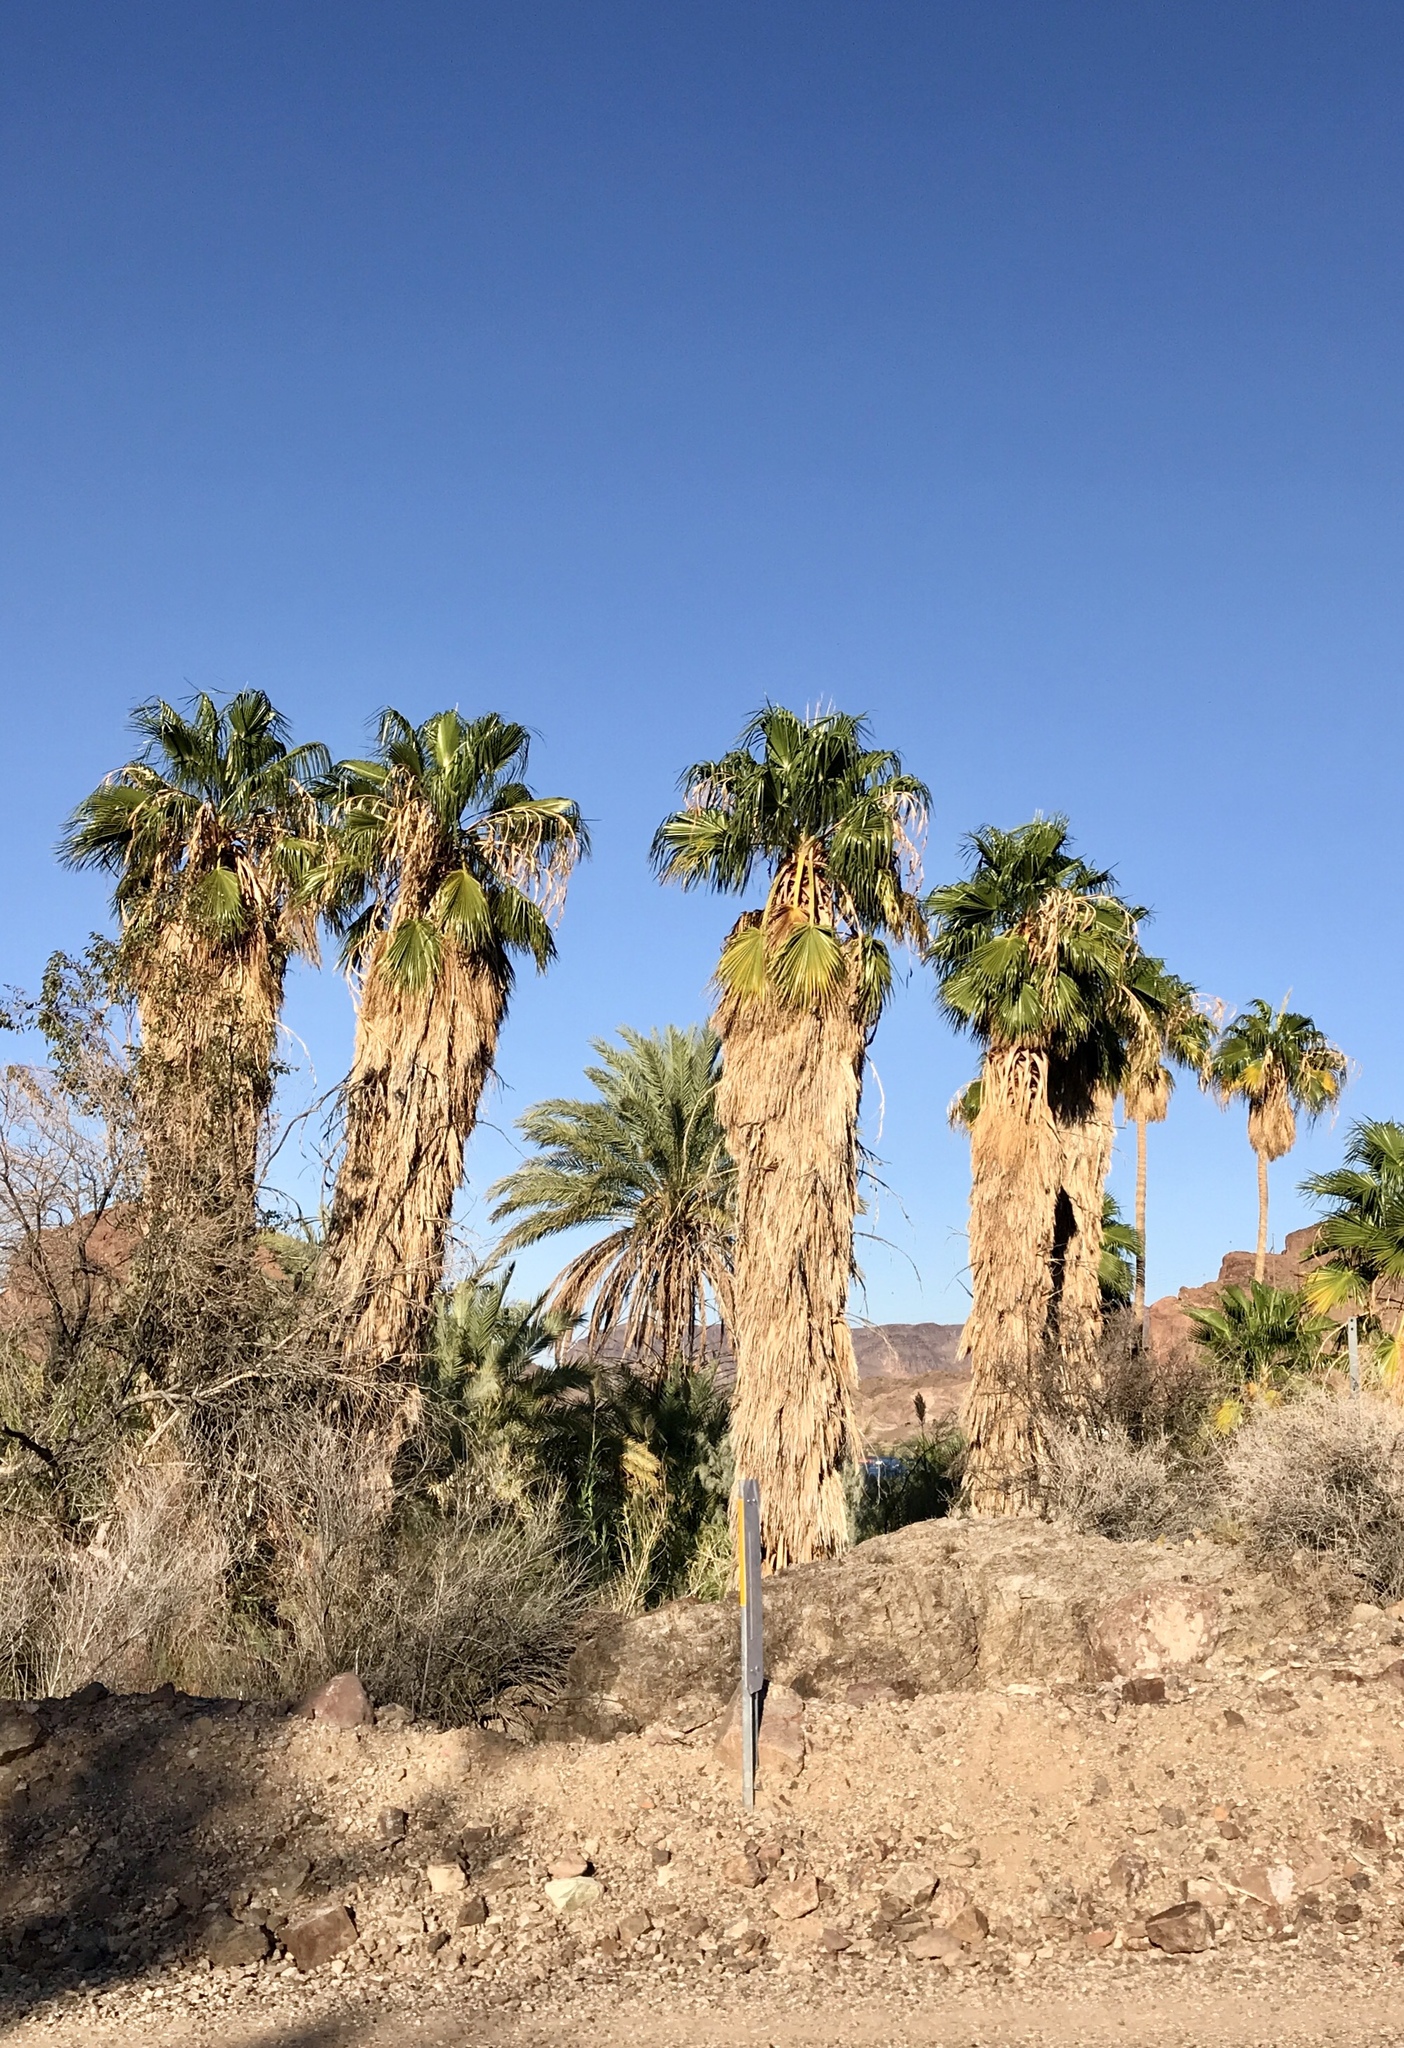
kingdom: Plantae
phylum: Tracheophyta
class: Liliopsida
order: Arecales
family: Arecaceae
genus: Washingtonia
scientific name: Washingtonia robusta
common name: Mexican fan palm
